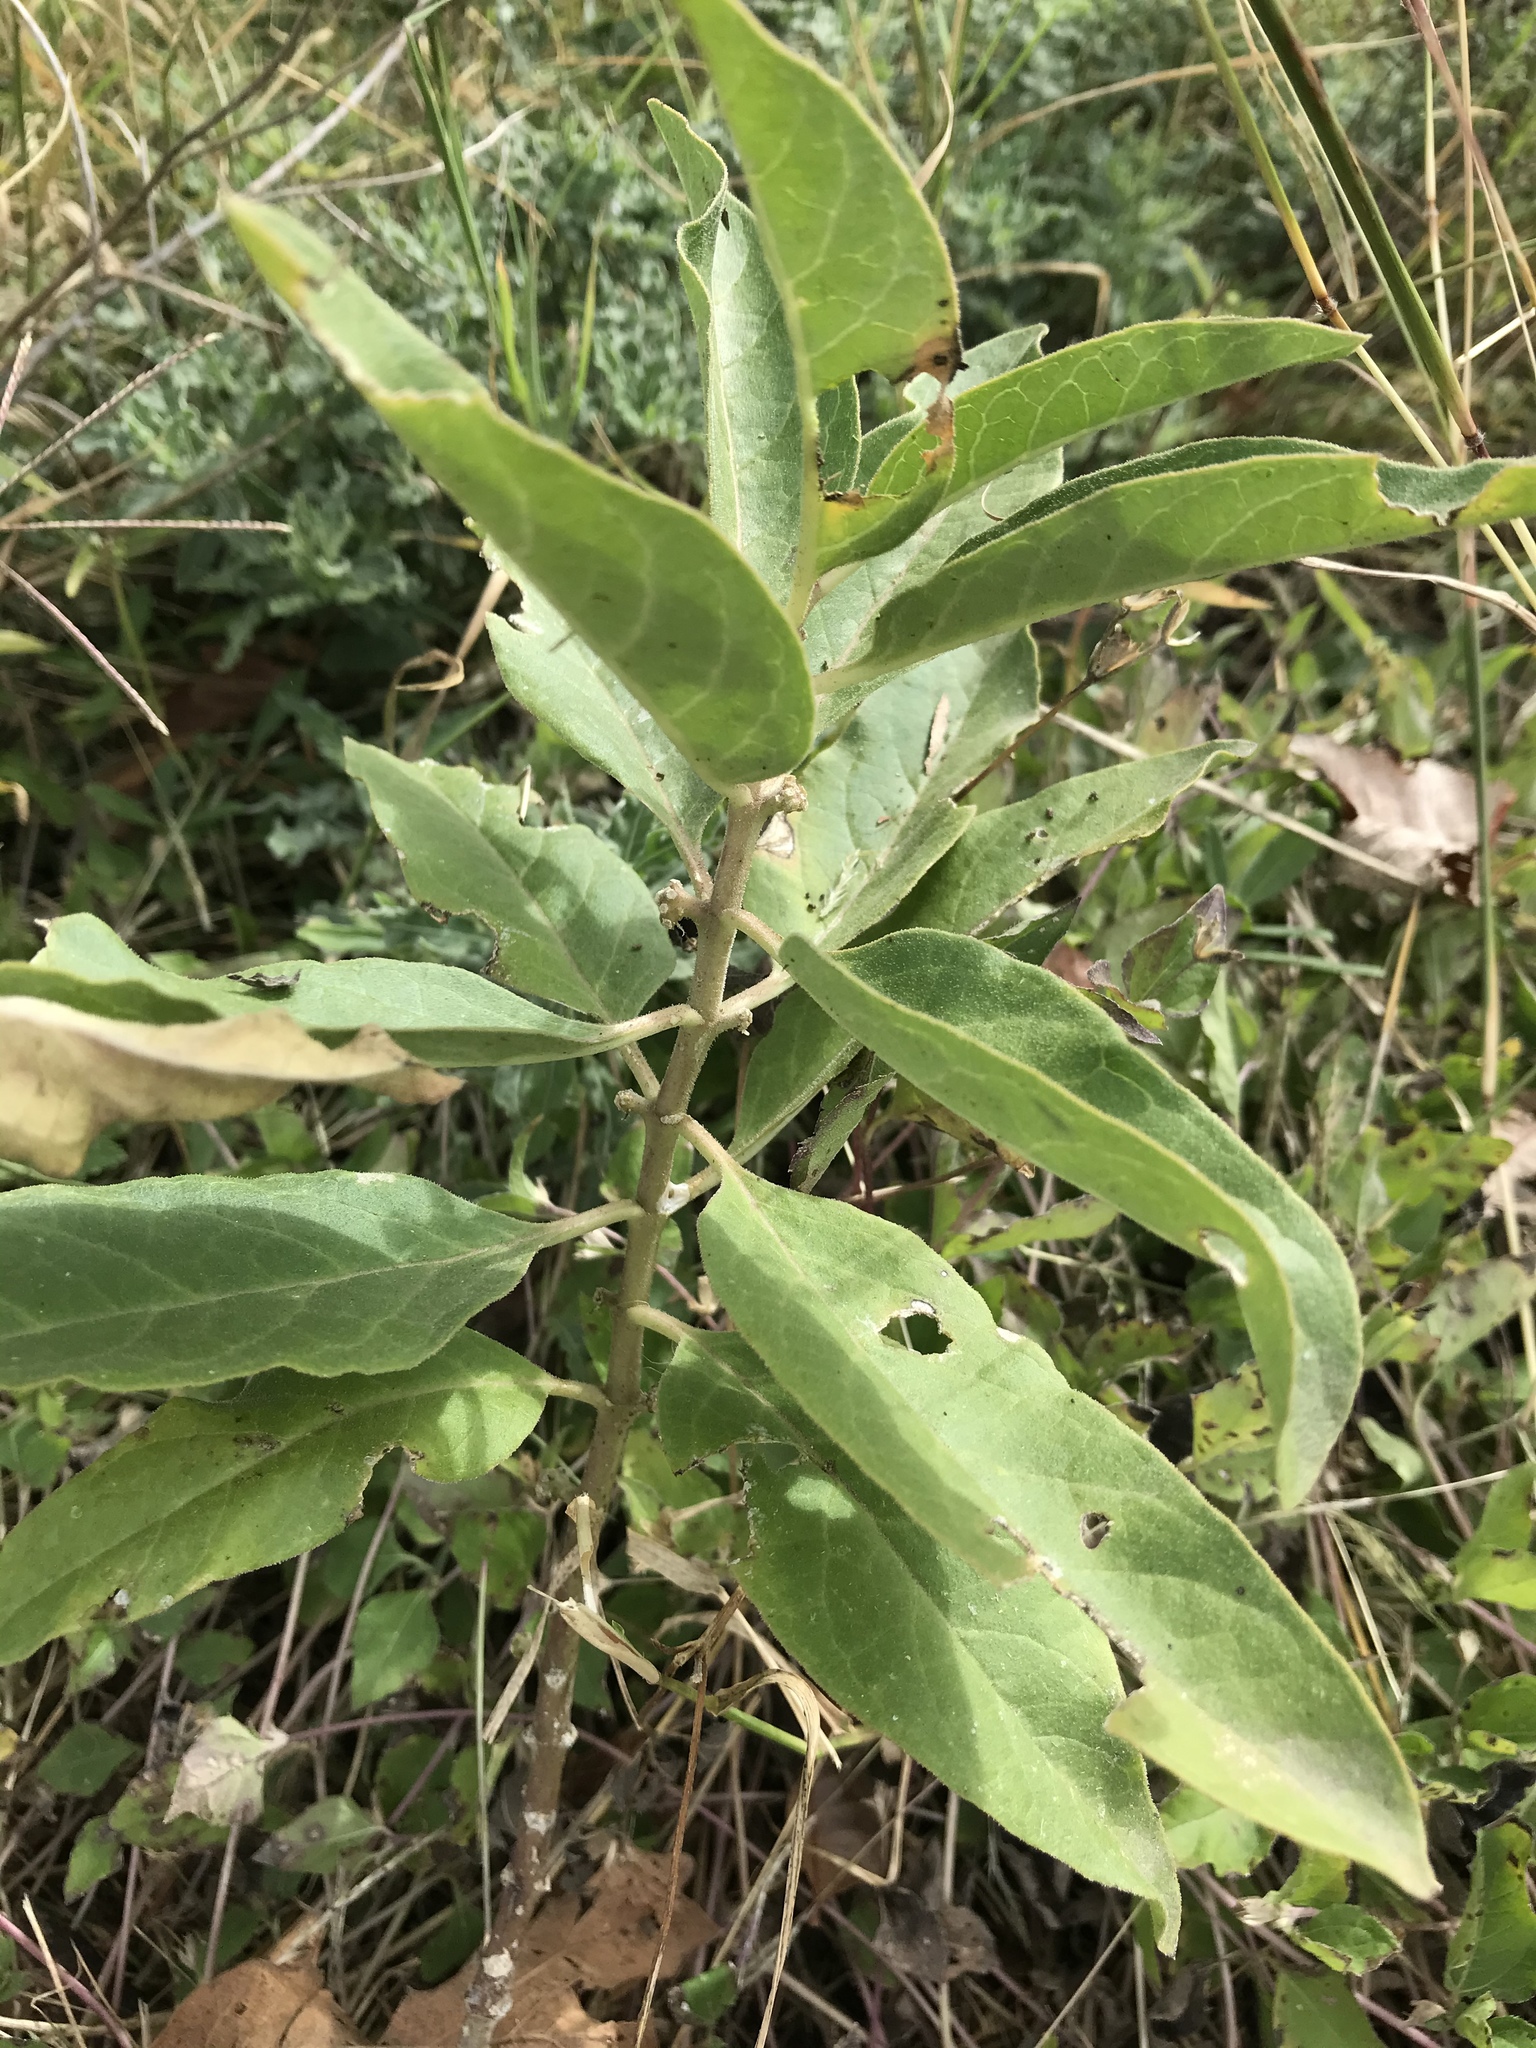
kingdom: Plantae
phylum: Tracheophyta
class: Magnoliopsida
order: Gentianales
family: Apocynaceae
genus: Asclepias
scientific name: Asclepias oenotheroides
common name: Zizotes milkweed
